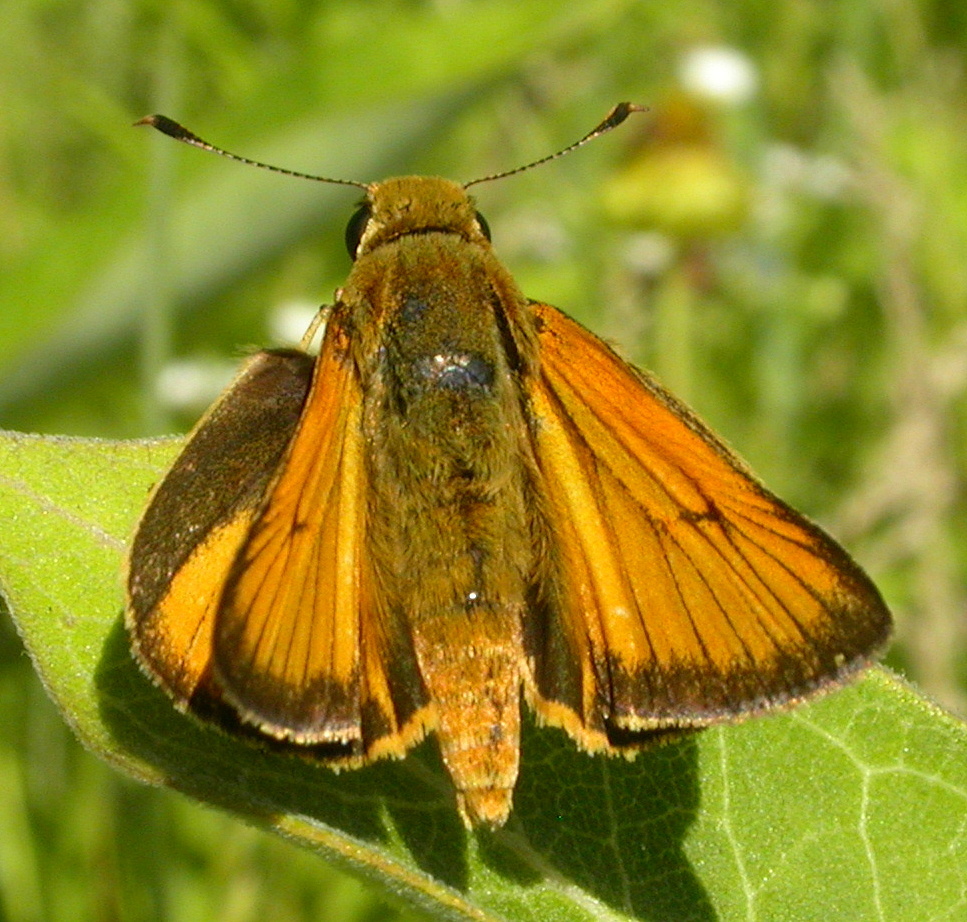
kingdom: Animalia
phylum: Arthropoda
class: Insecta
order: Lepidoptera
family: Hesperiidae
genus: Atrytone
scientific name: Atrytone delaware
